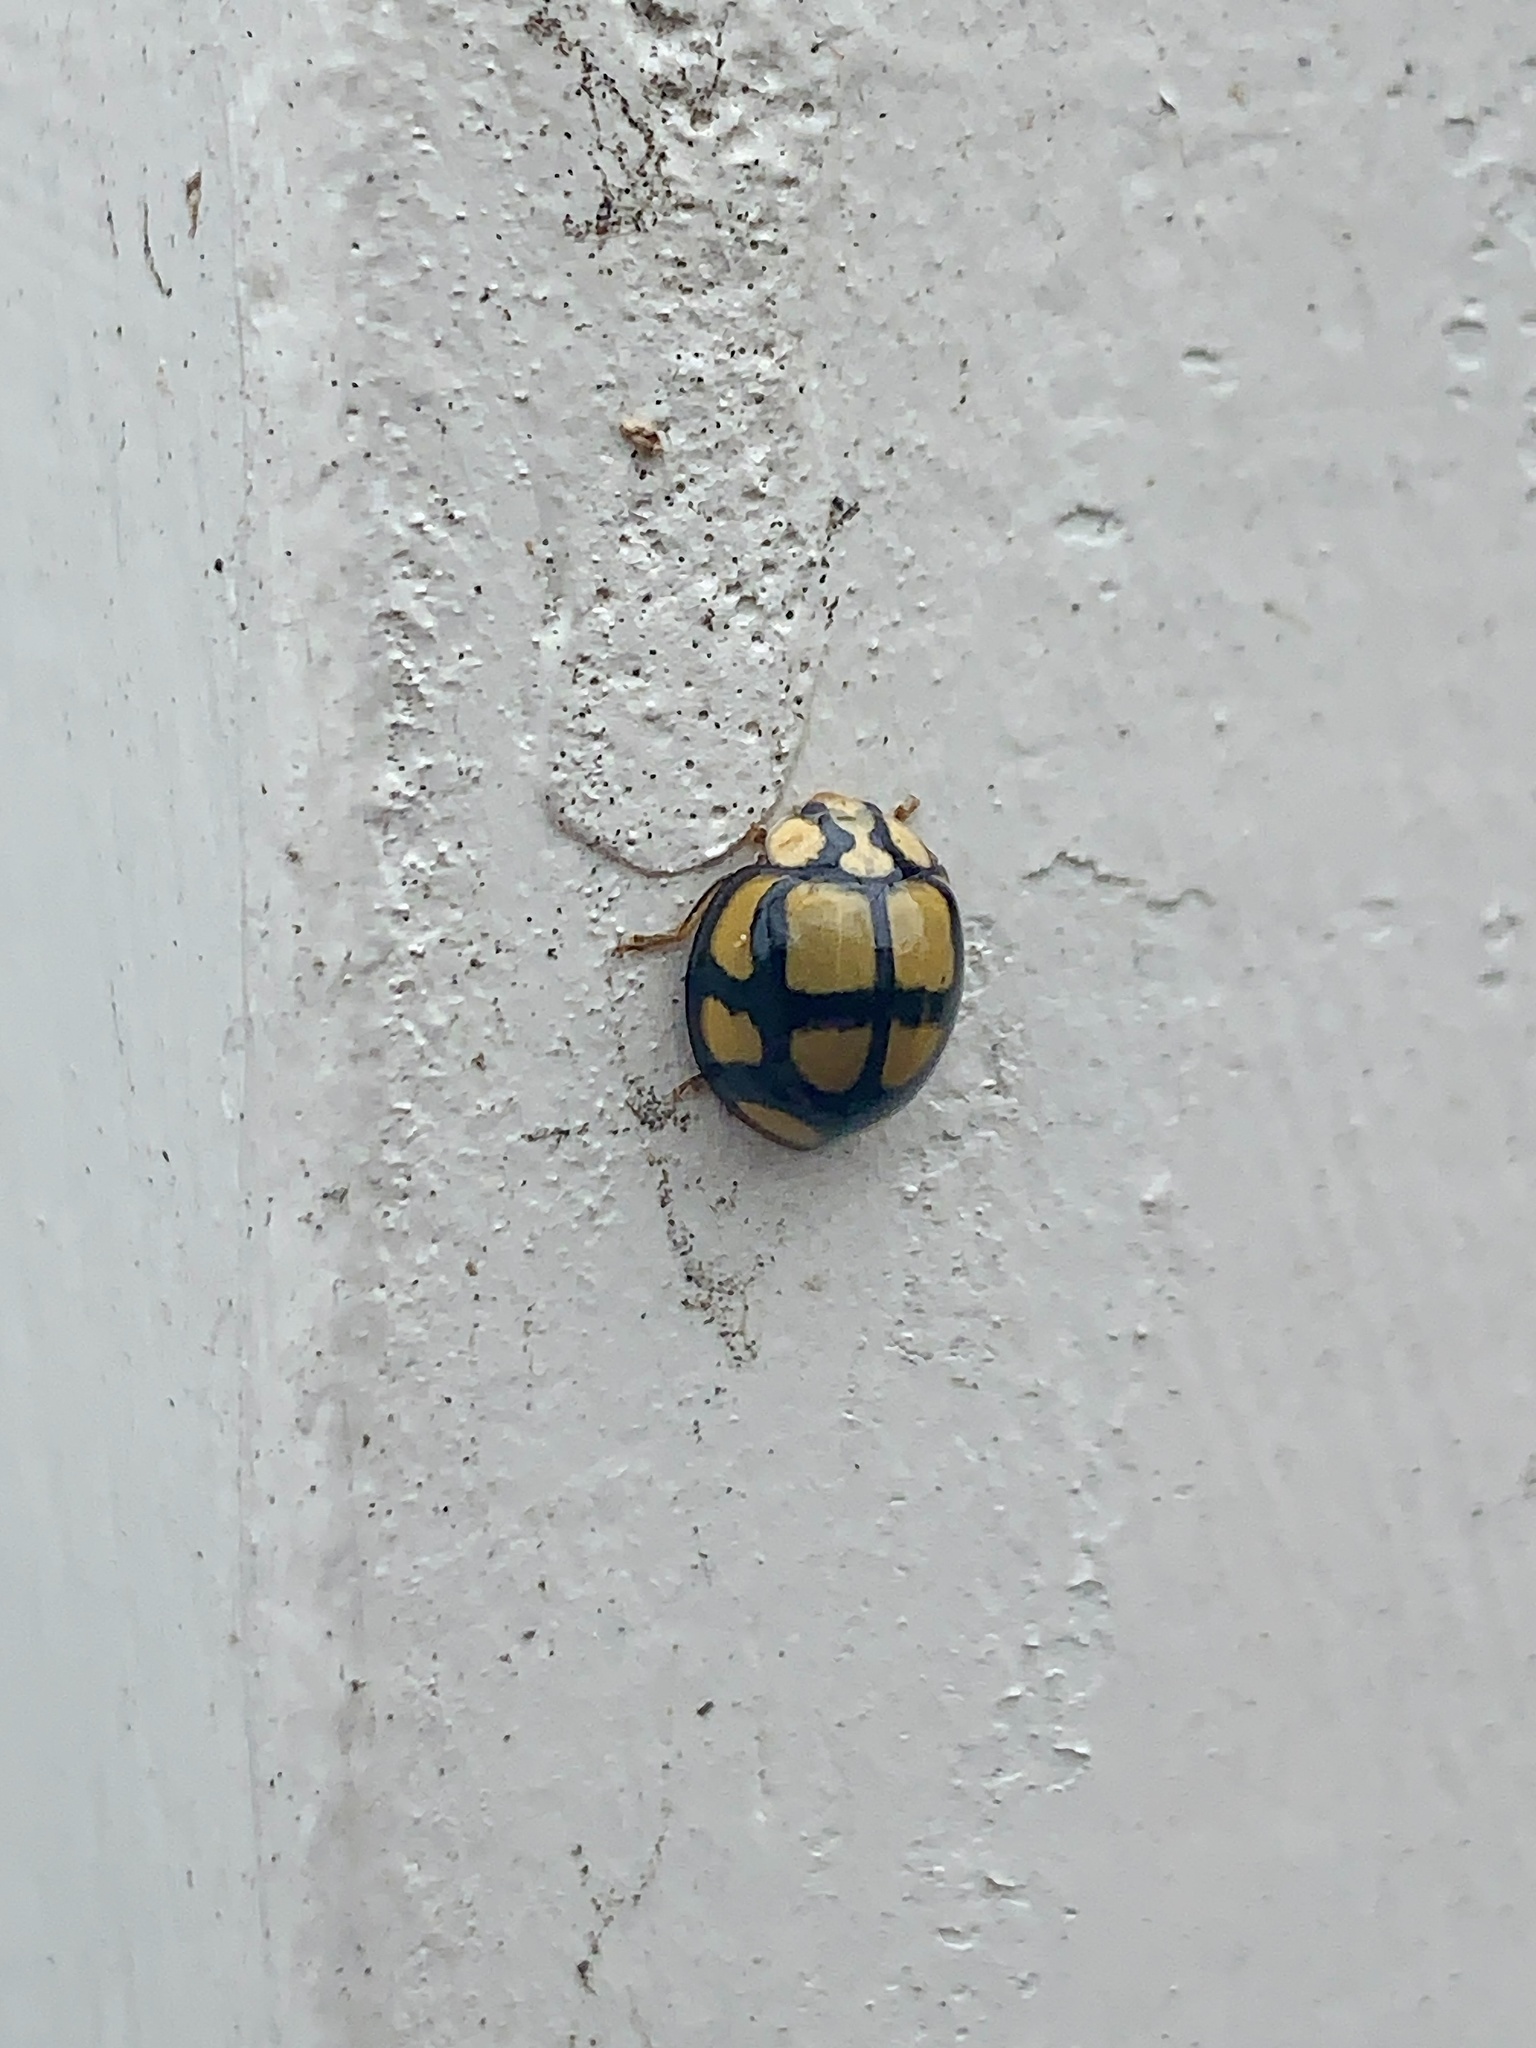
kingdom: Animalia
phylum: Arthropoda
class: Insecta
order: Coleoptera
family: Coccinellidae
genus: Harmonia
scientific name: Harmonia
